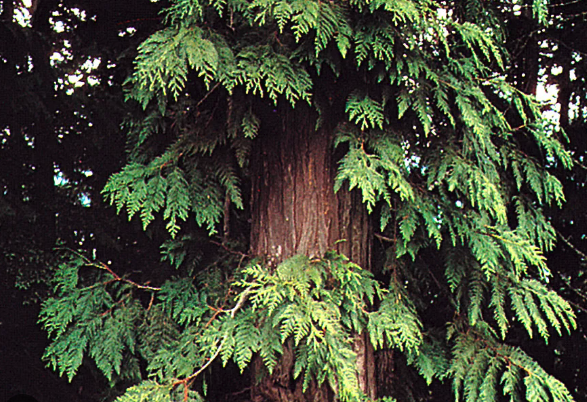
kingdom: Plantae
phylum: Tracheophyta
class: Pinopsida
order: Pinales
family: Cupressaceae
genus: Thuja
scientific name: Thuja plicata
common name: Western red-cedar
